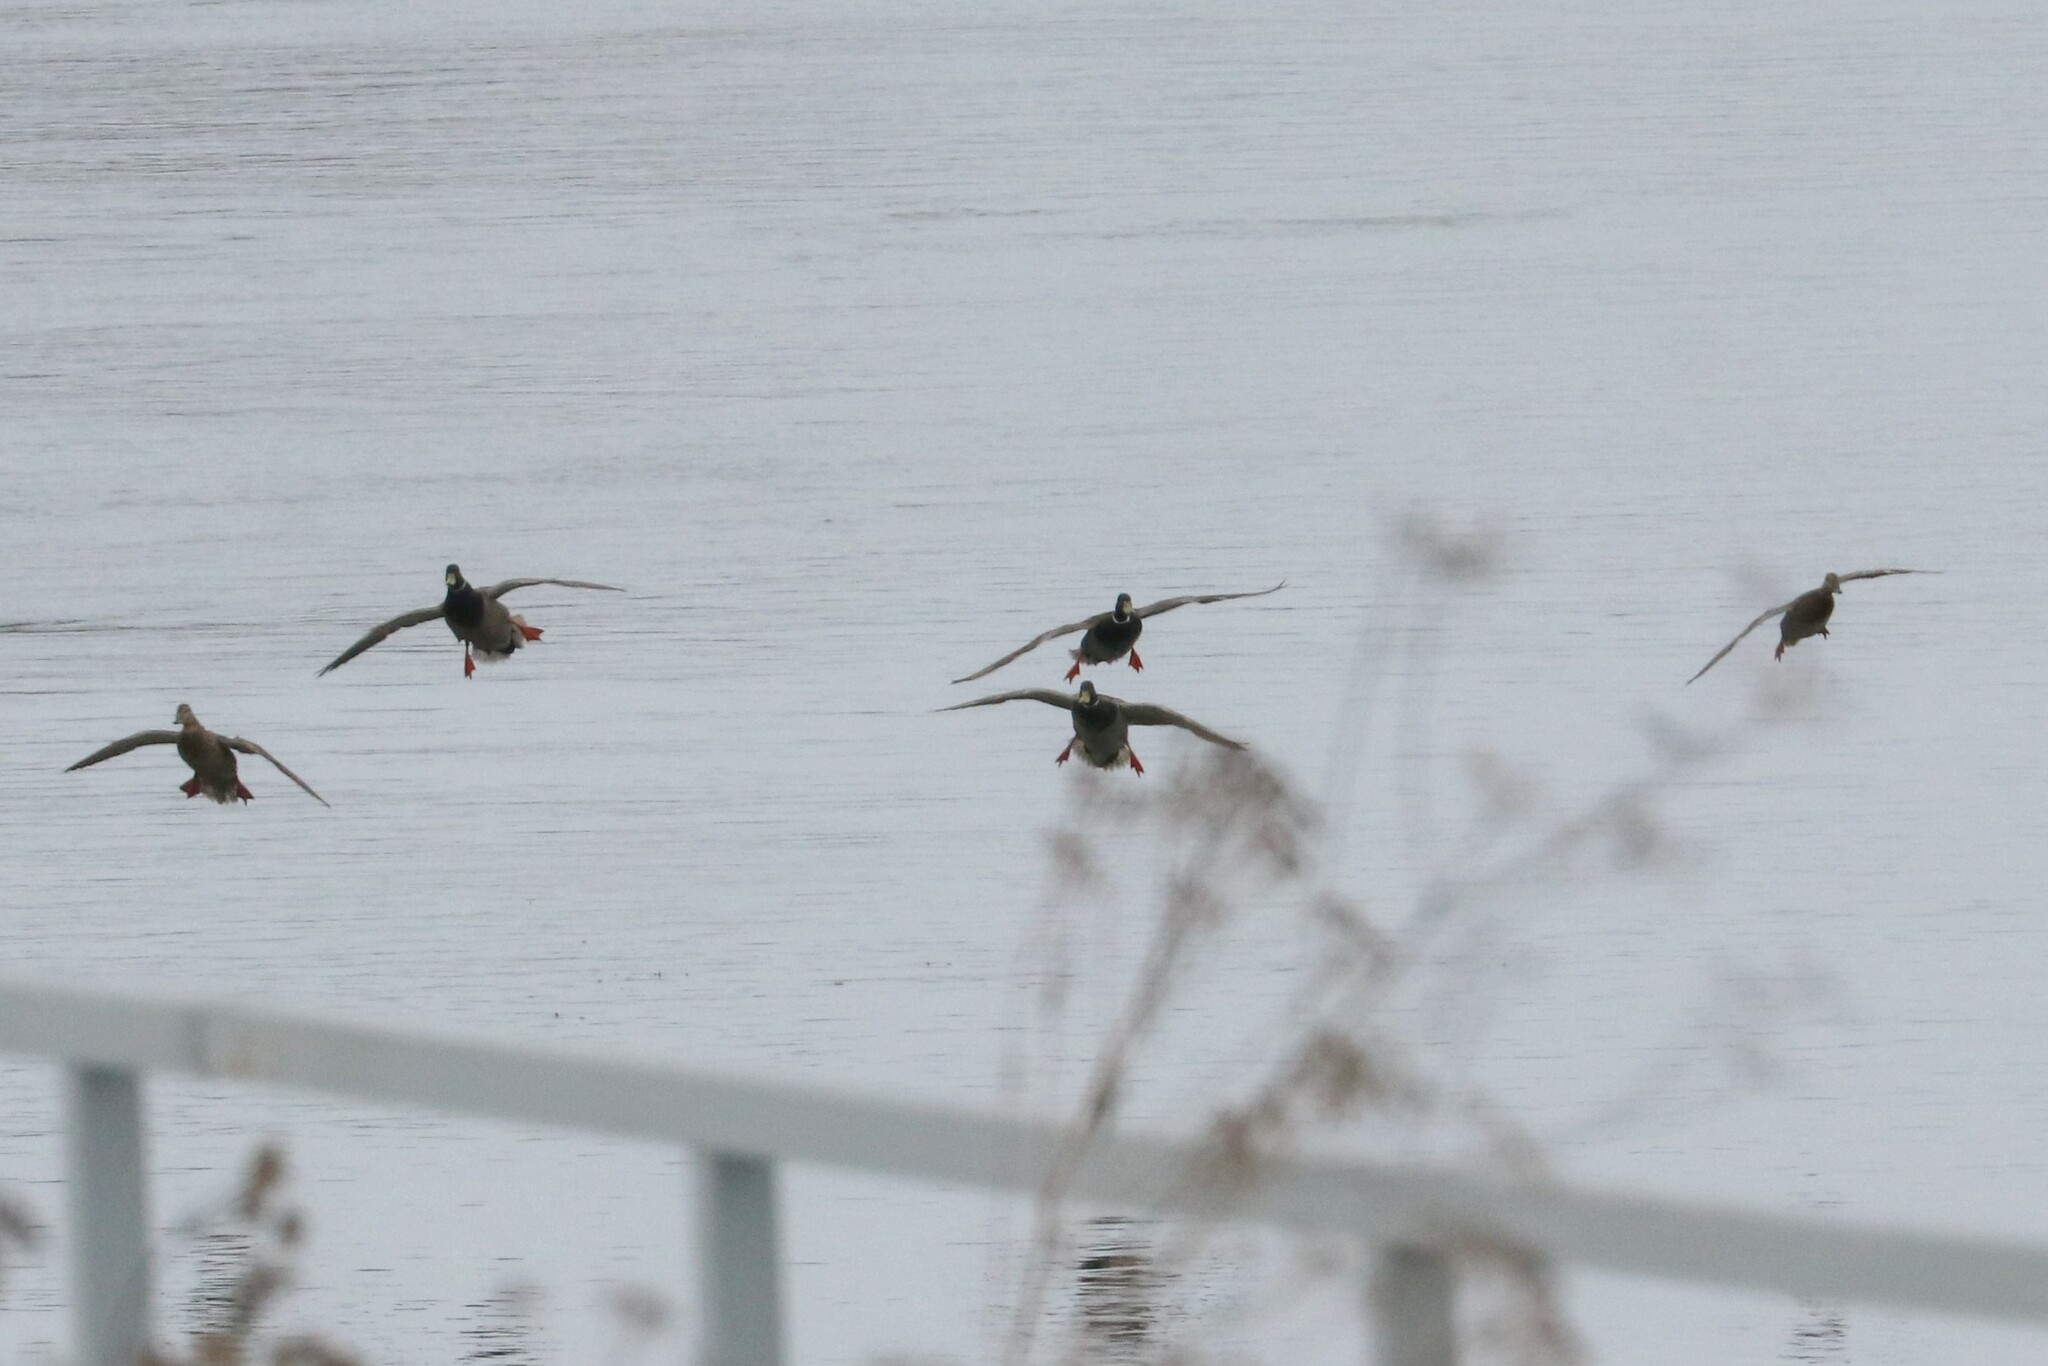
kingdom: Animalia
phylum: Chordata
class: Aves
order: Anseriformes
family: Anatidae
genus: Anas
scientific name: Anas platyrhynchos
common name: Mallard
